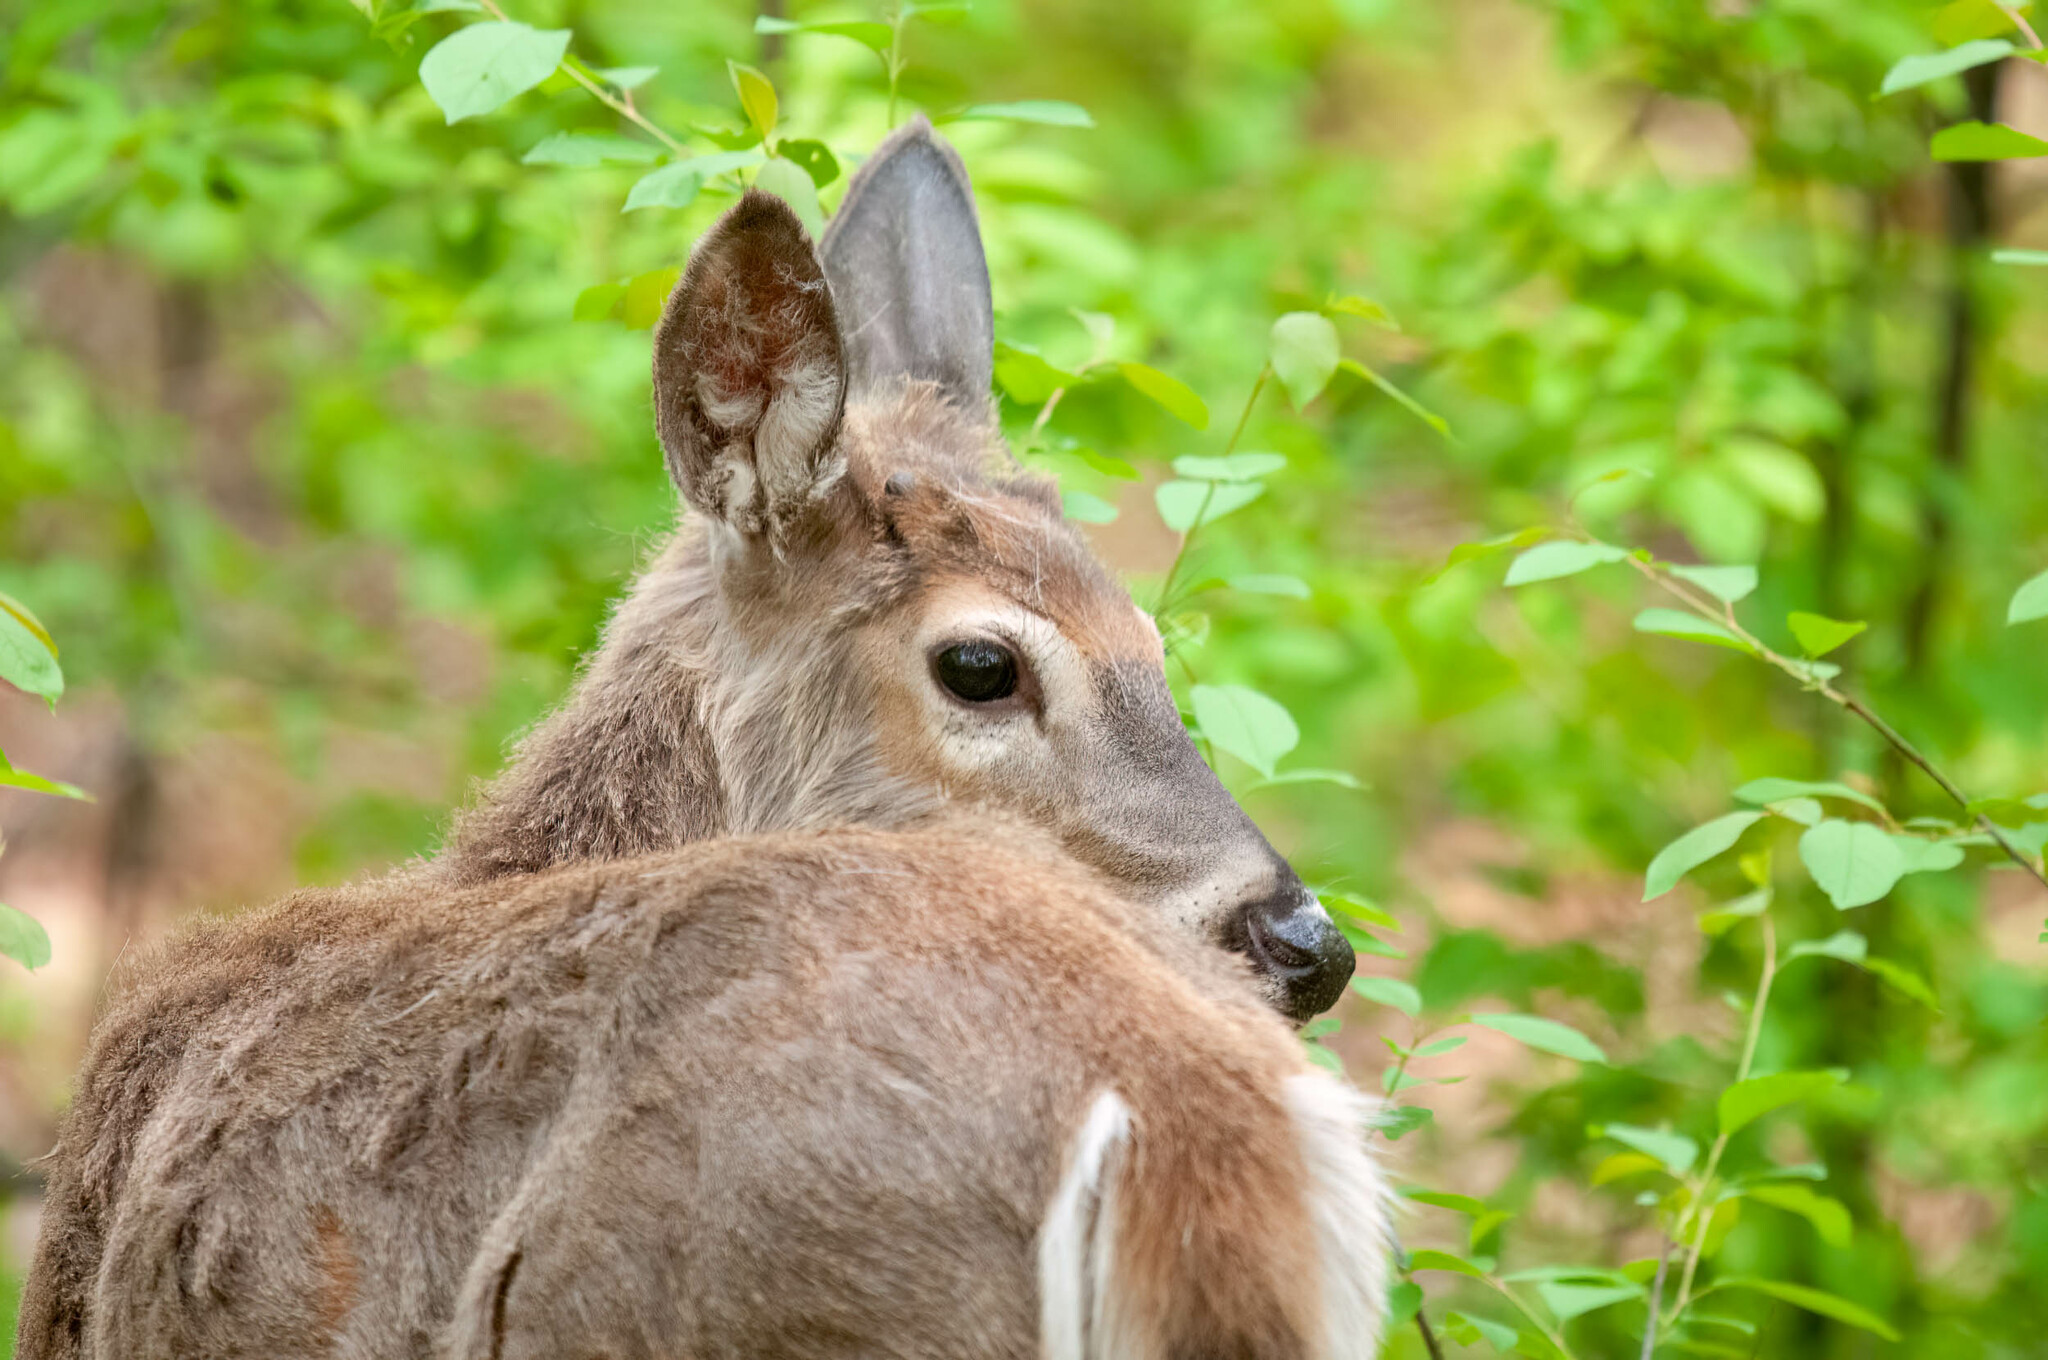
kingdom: Animalia
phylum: Chordata
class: Mammalia
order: Artiodactyla
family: Cervidae
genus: Odocoileus
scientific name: Odocoileus virginianus
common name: White-tailed deer
